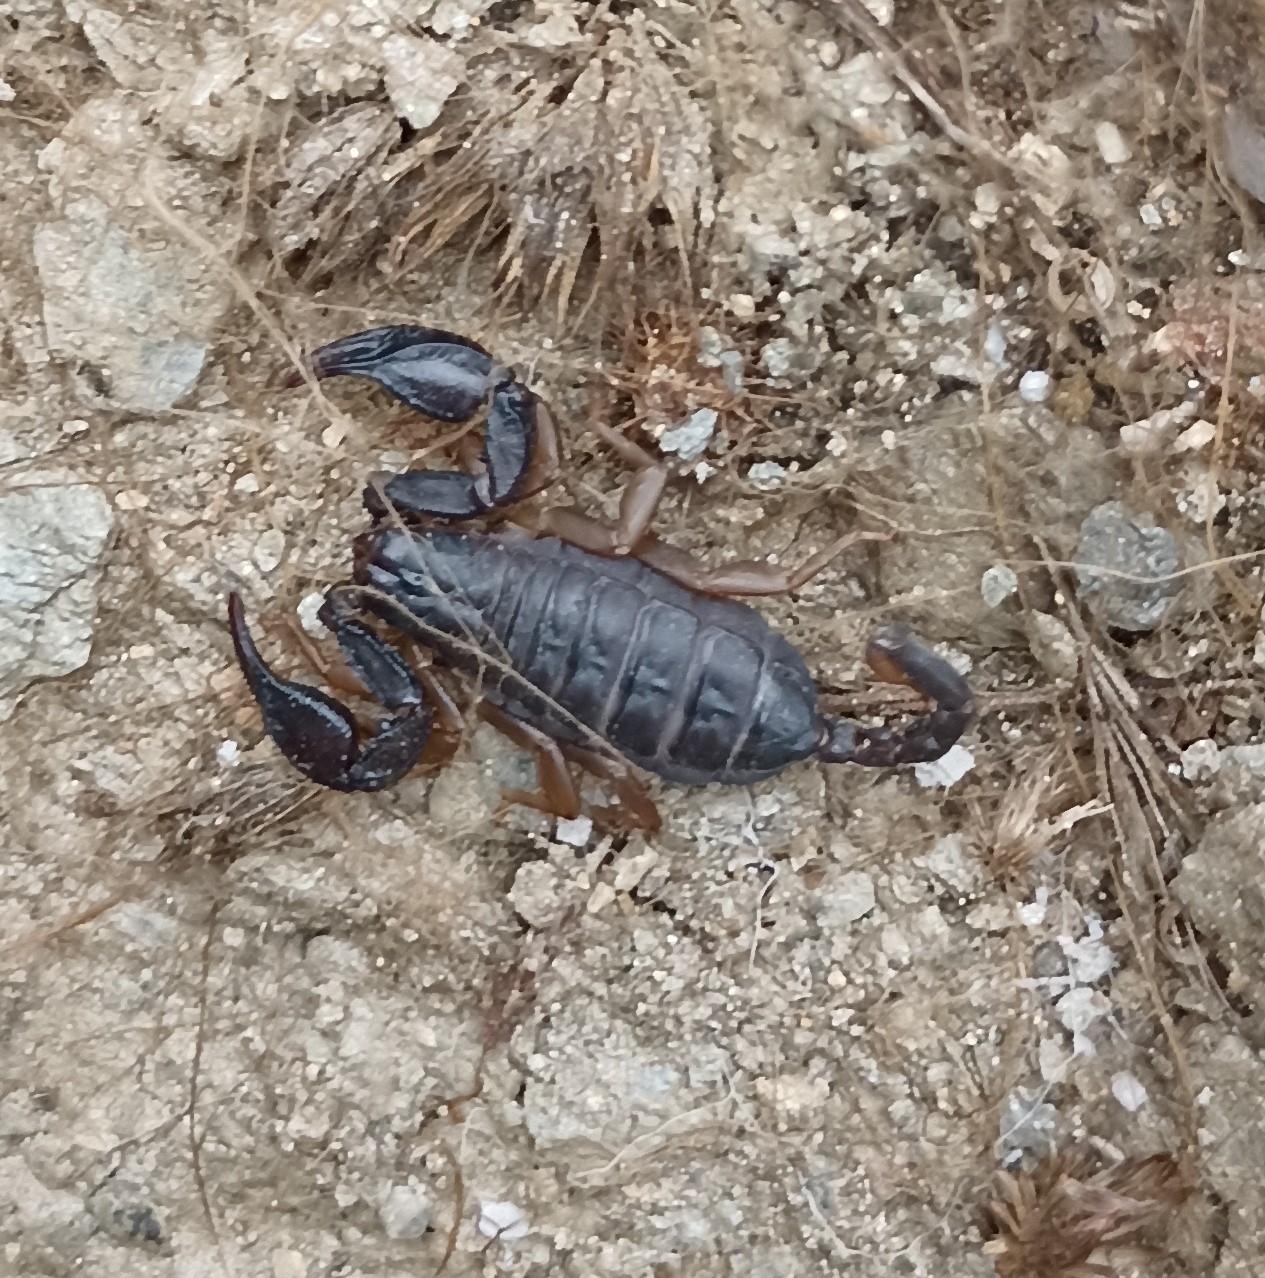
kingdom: Animalia
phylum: Arthropoda
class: Arachnida
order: Scorpiones
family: Euscorpiidae
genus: Euscorpius
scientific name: Euscorpius
